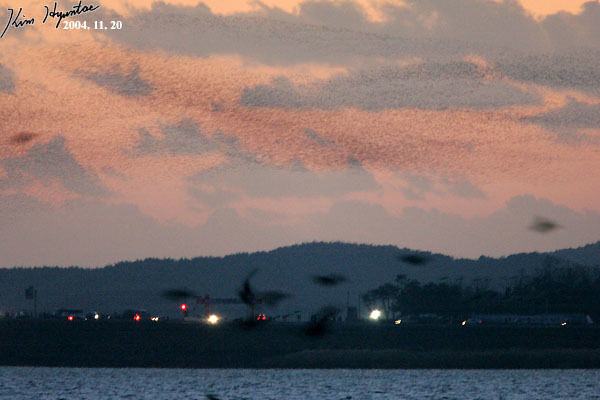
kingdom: Animalia
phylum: Chordata
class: Aves
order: Anseriformes
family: Anatidae
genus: Sibirionetta
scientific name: Sibirionetta formosa
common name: Baikal teal
